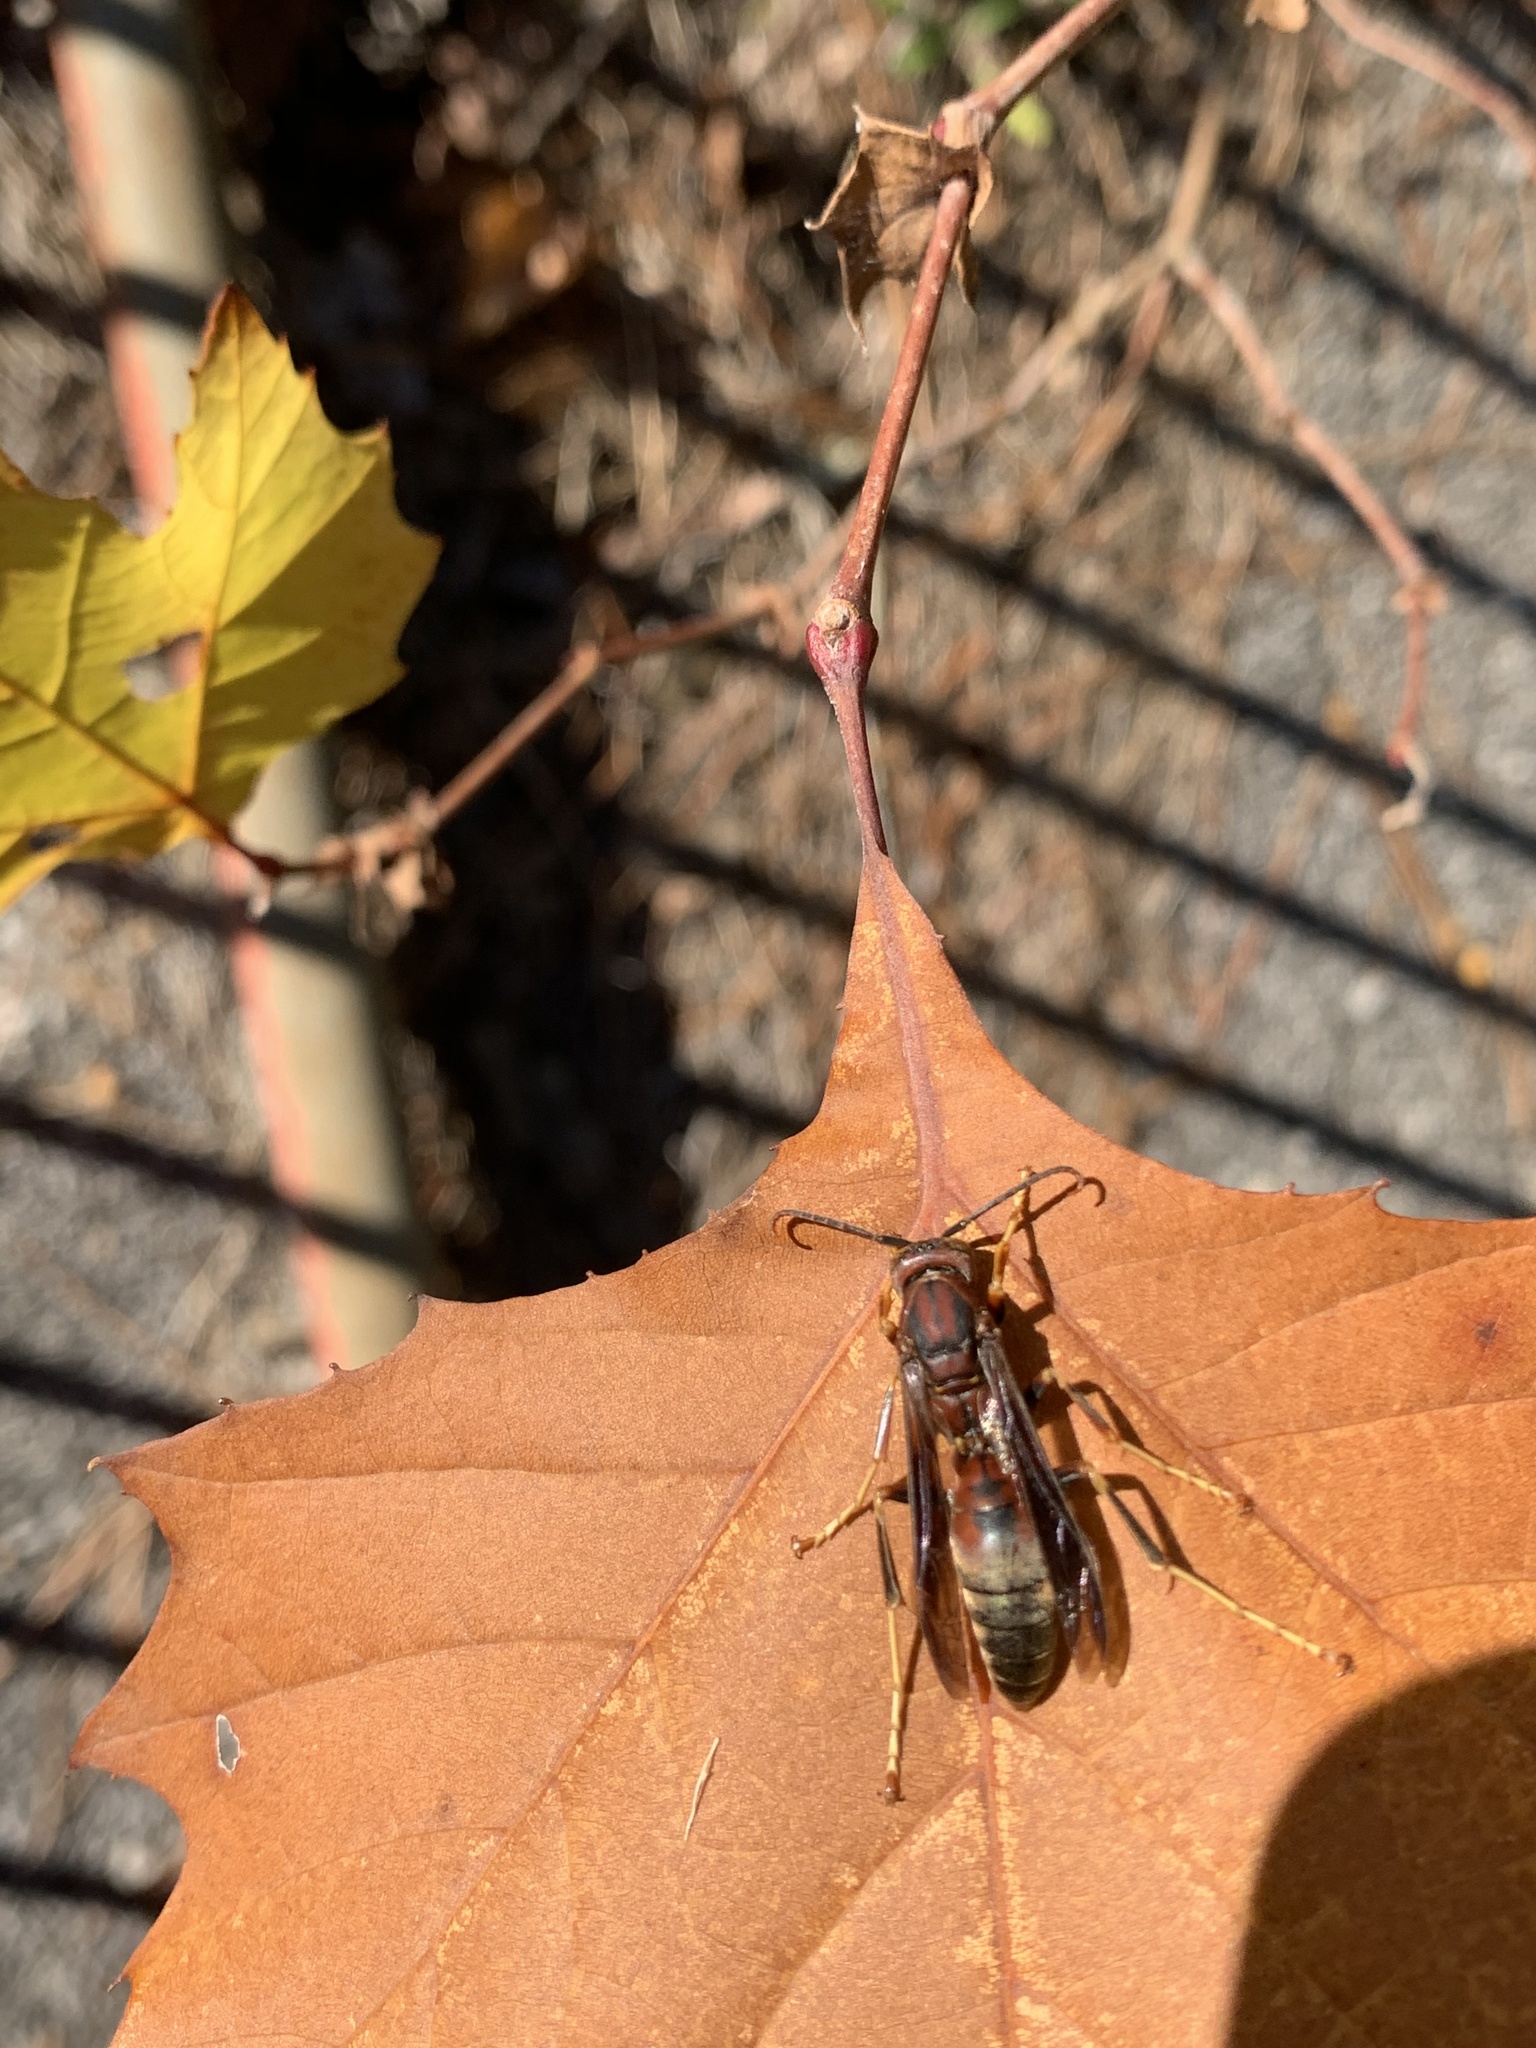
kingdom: Animalia
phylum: Arthropoda
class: Insecta
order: Hymenoptera
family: Eumenidae
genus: Polistes
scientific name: Polistes metricus
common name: Metric paper wasp
